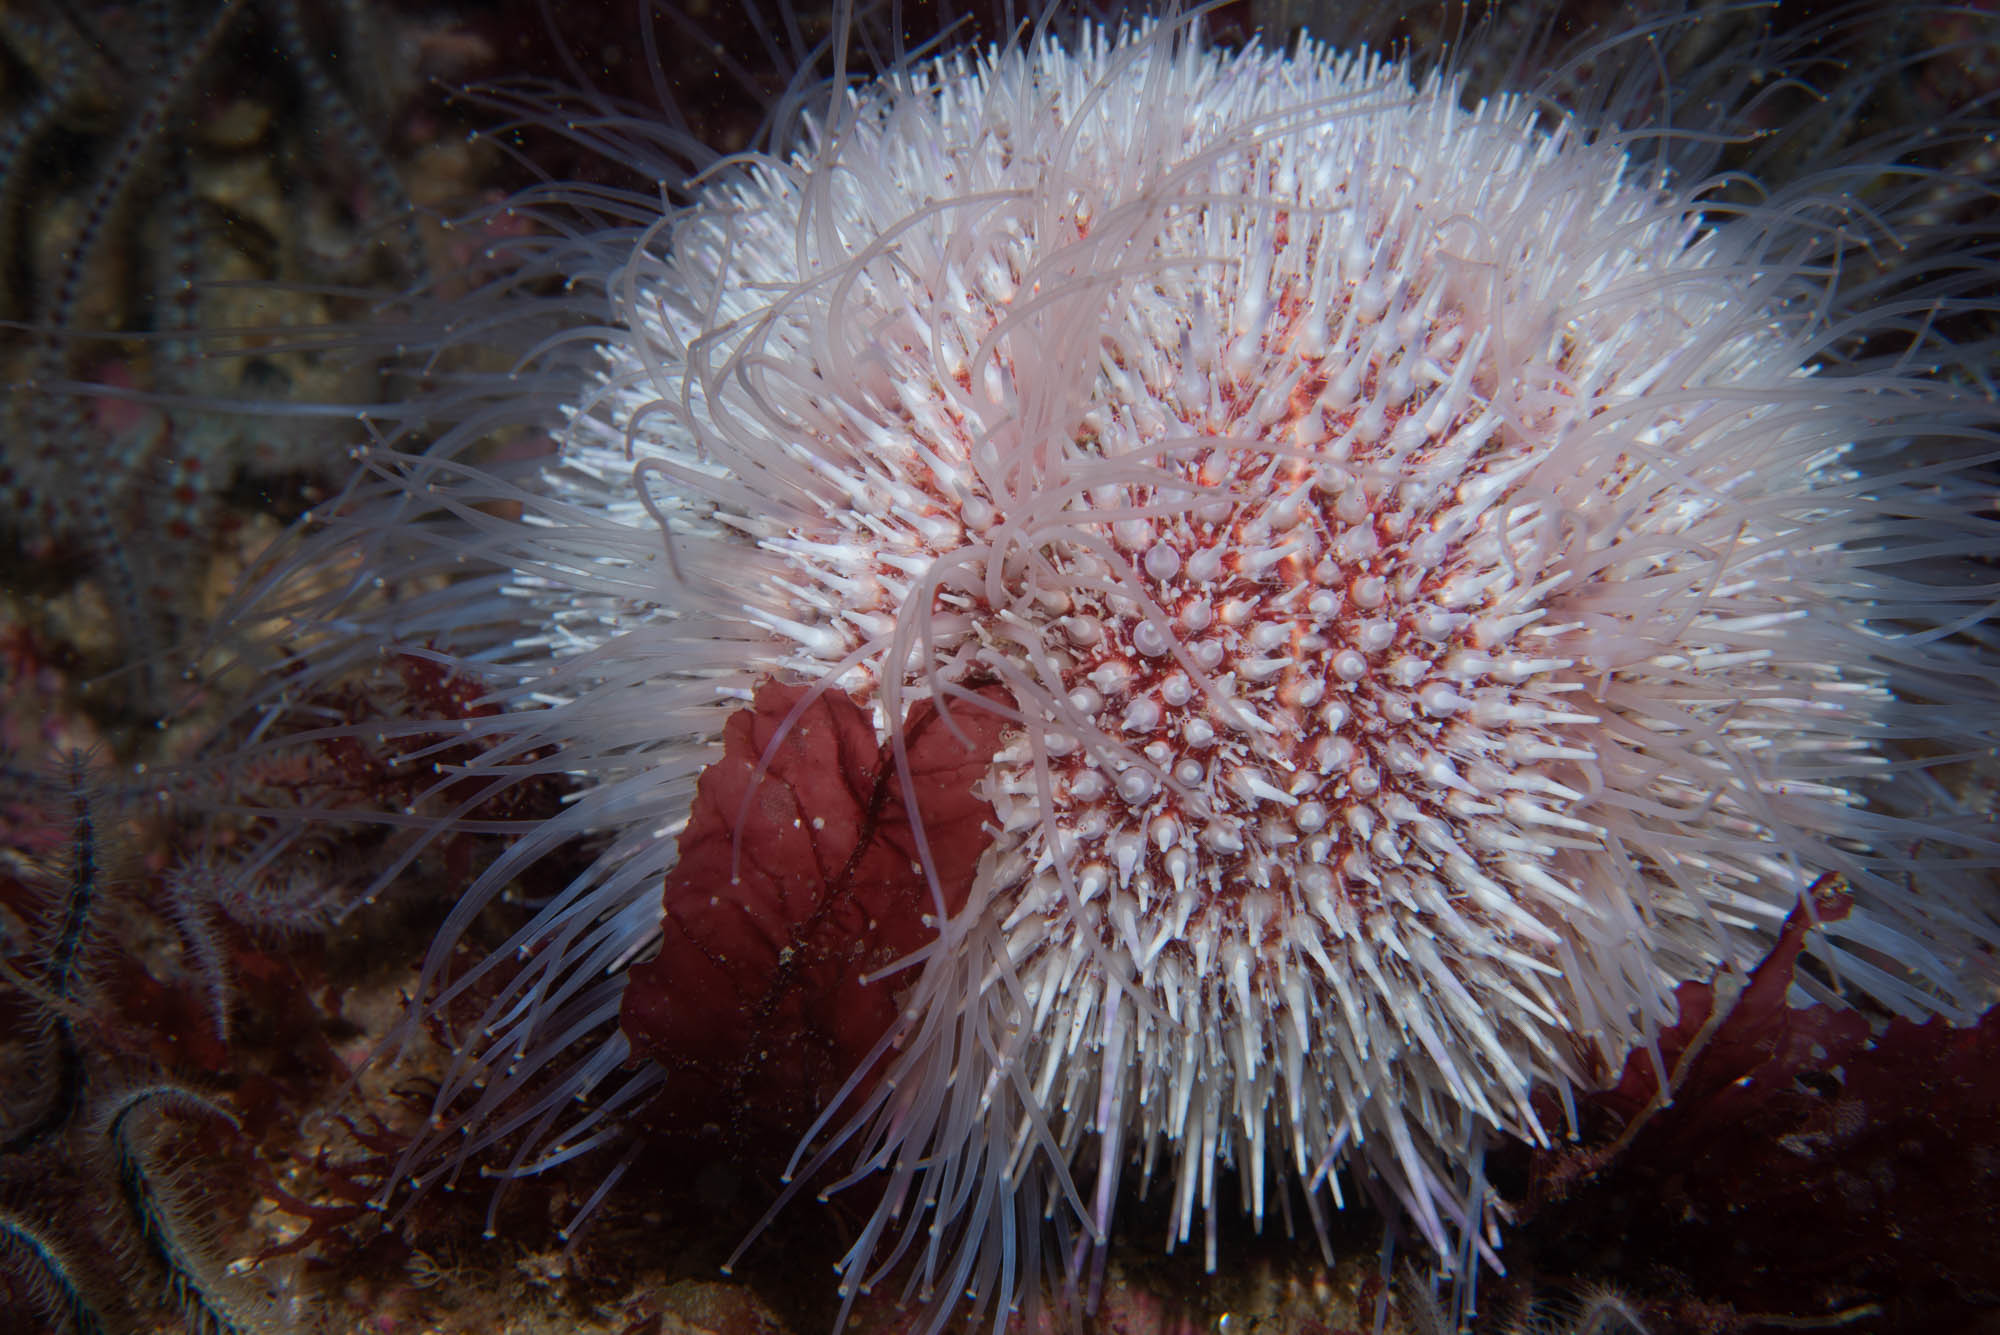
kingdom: Animalia
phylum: Echinodermata
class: Echinoidea
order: Camarodonta
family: Echinidae
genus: Echinus
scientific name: Echinus esculentus
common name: Edible sea urchin
